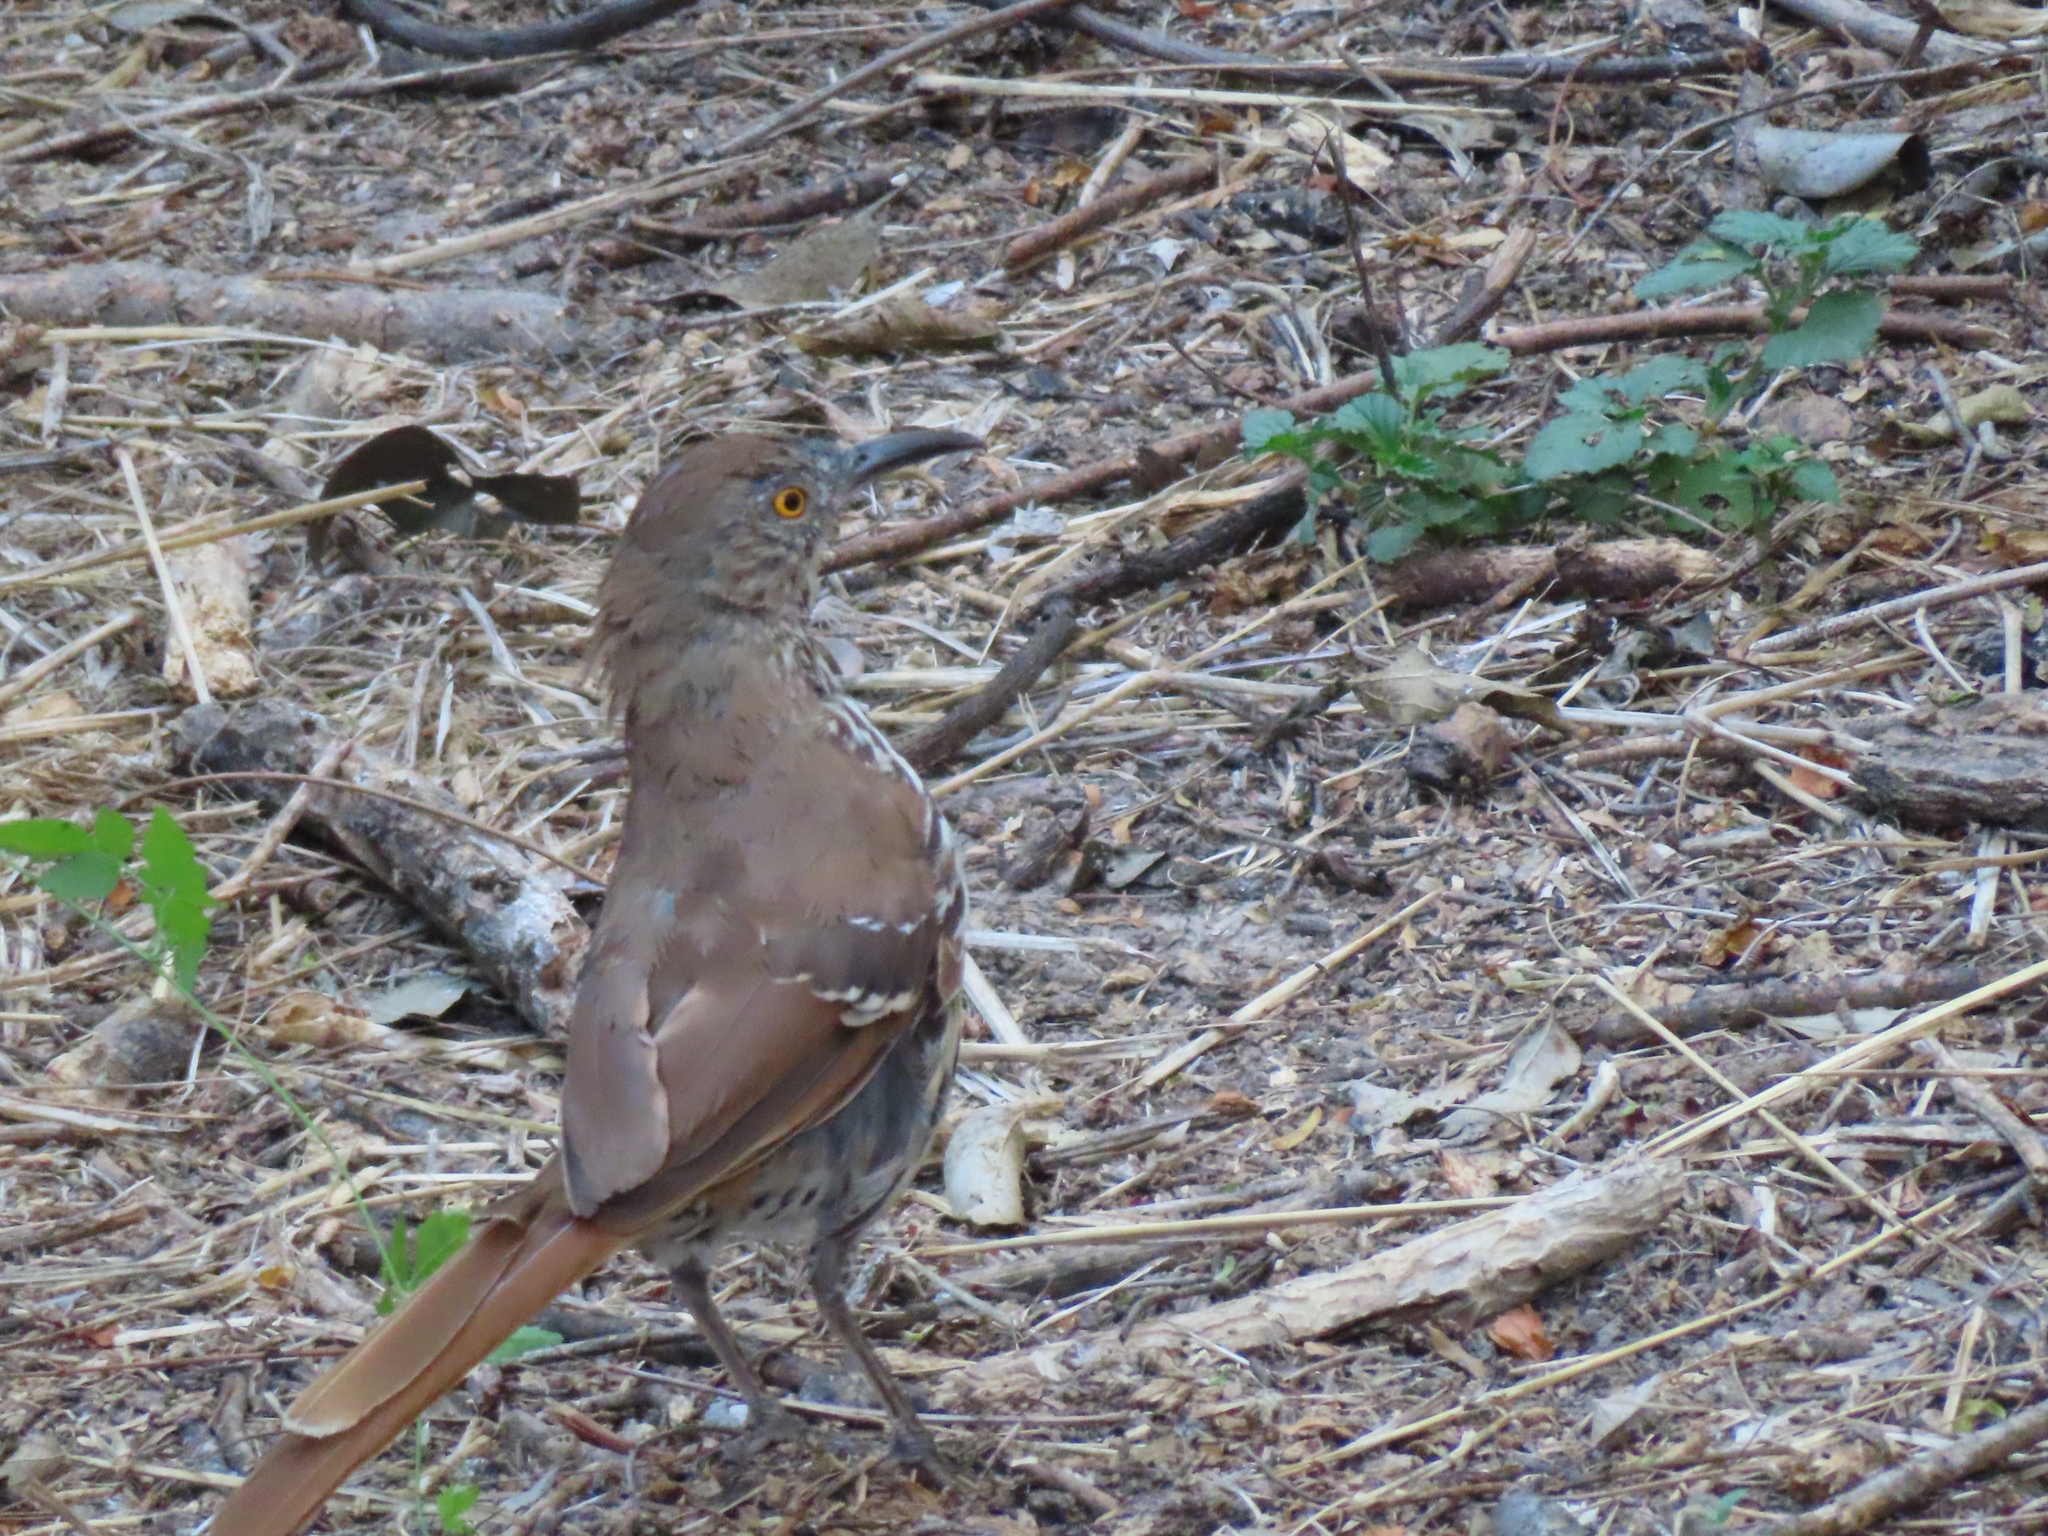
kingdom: Animalia
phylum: Chordata
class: Aves
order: Passeriformes
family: Mimidae
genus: Toxostoma
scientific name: Toxostoma longirostre
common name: Long-billed thrasher
